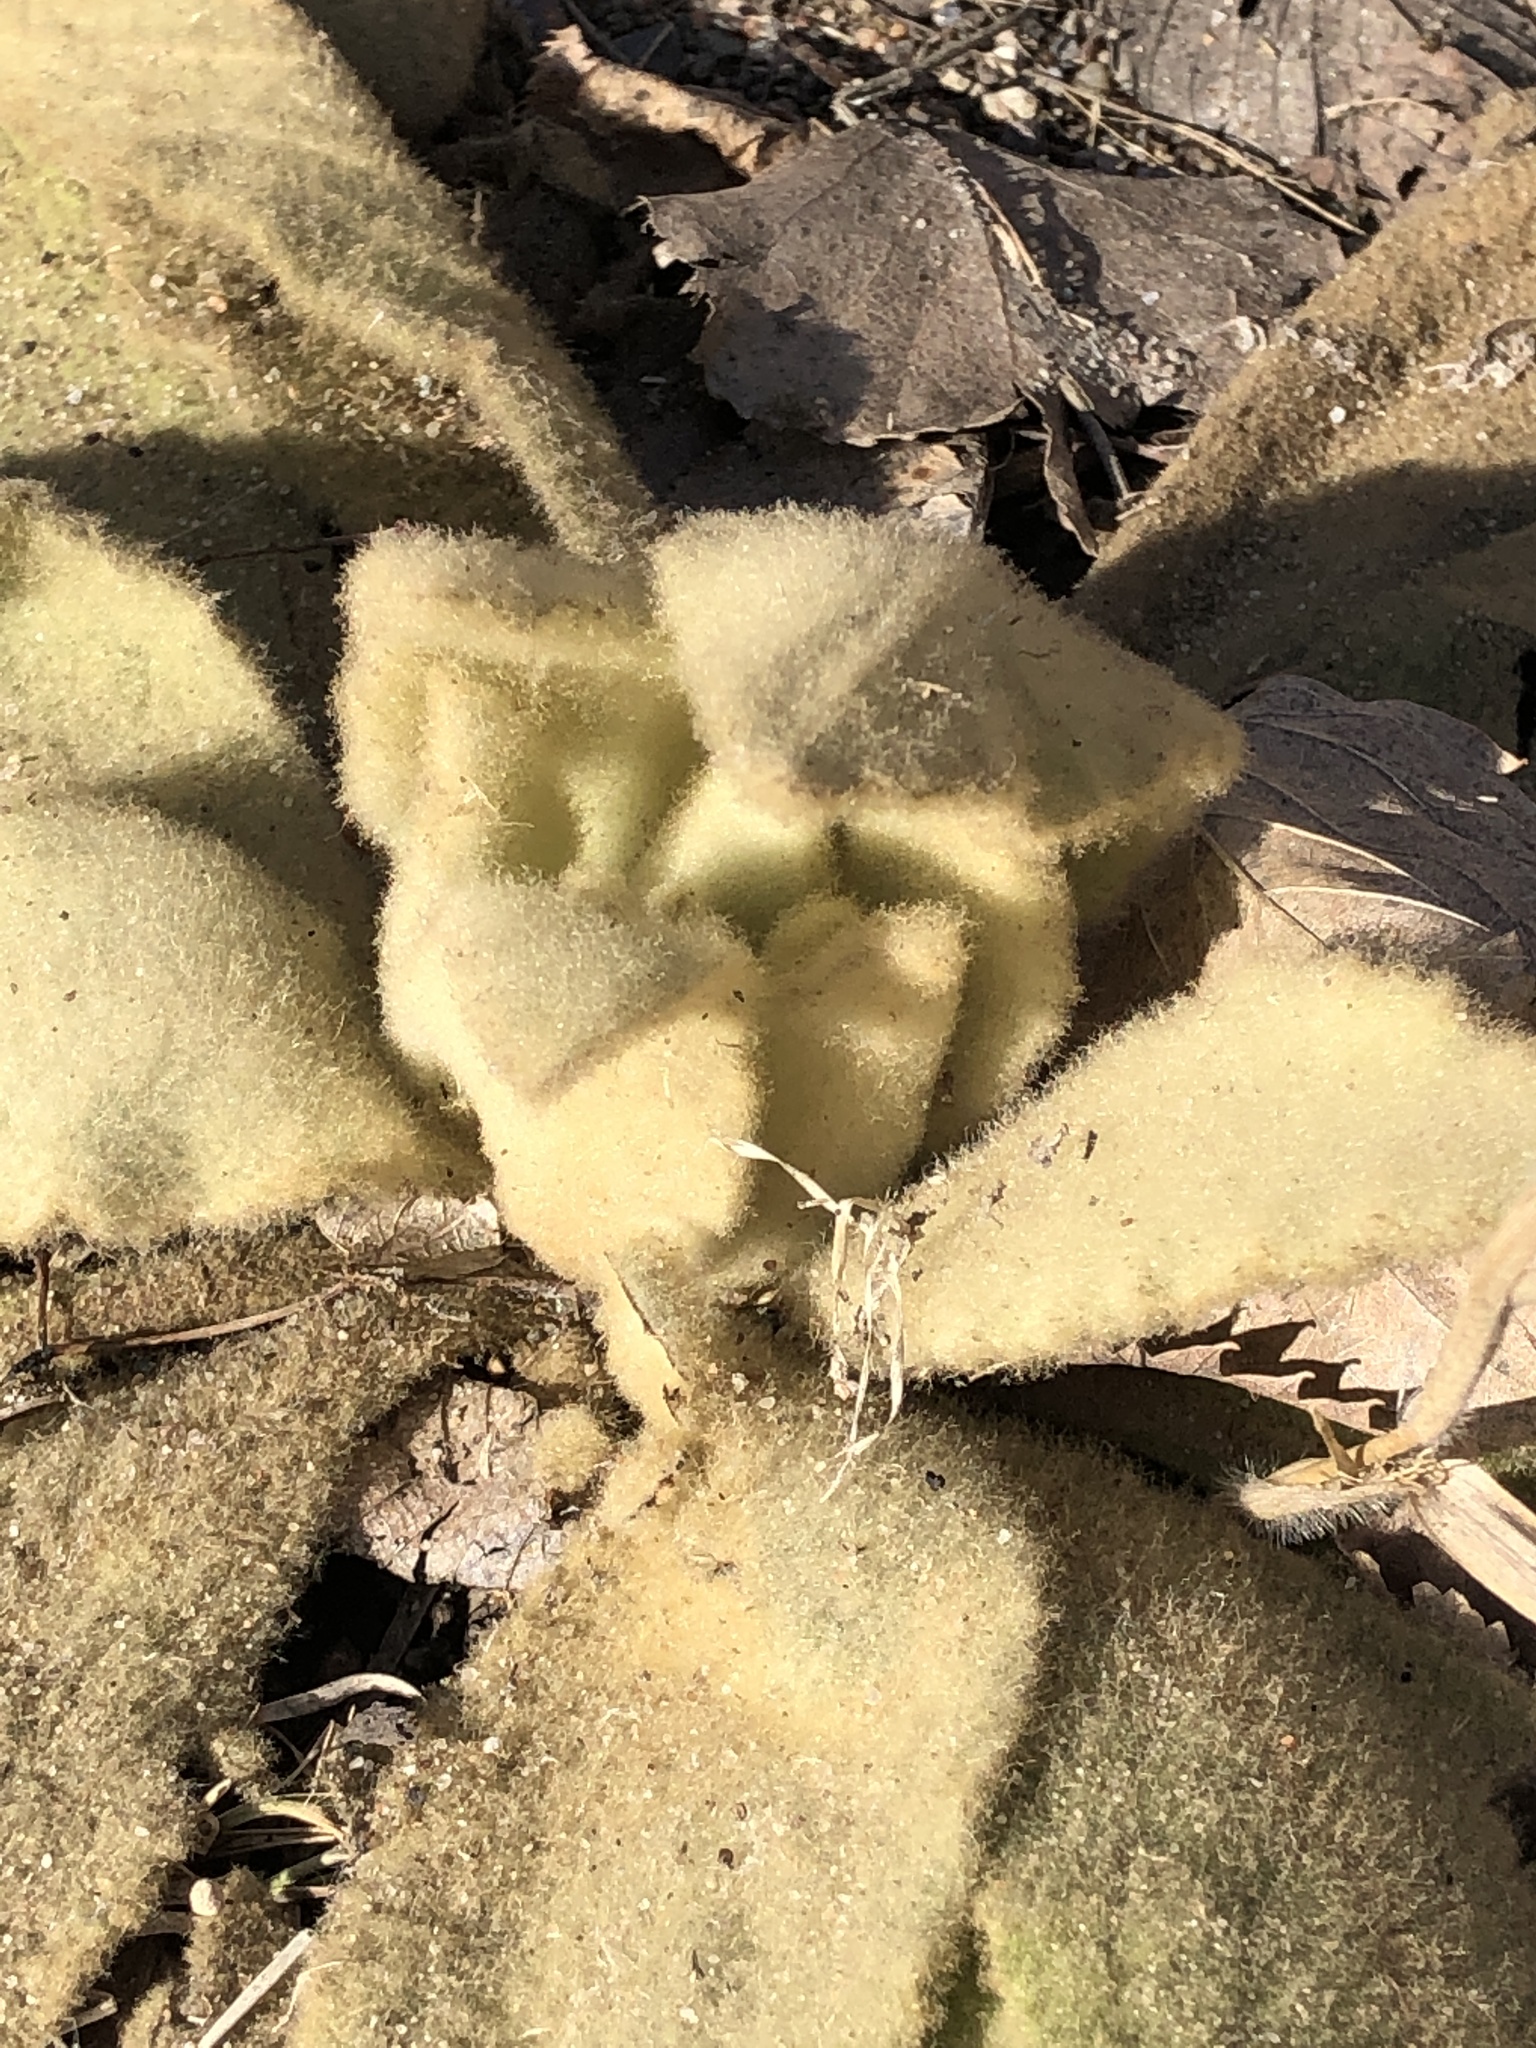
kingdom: Plantae
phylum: Tracheophyta
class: Magnoliopsida
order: Lamiales
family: Scrophulariaceae
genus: Verbascum
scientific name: Verbascum thapsus
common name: Common mullein
